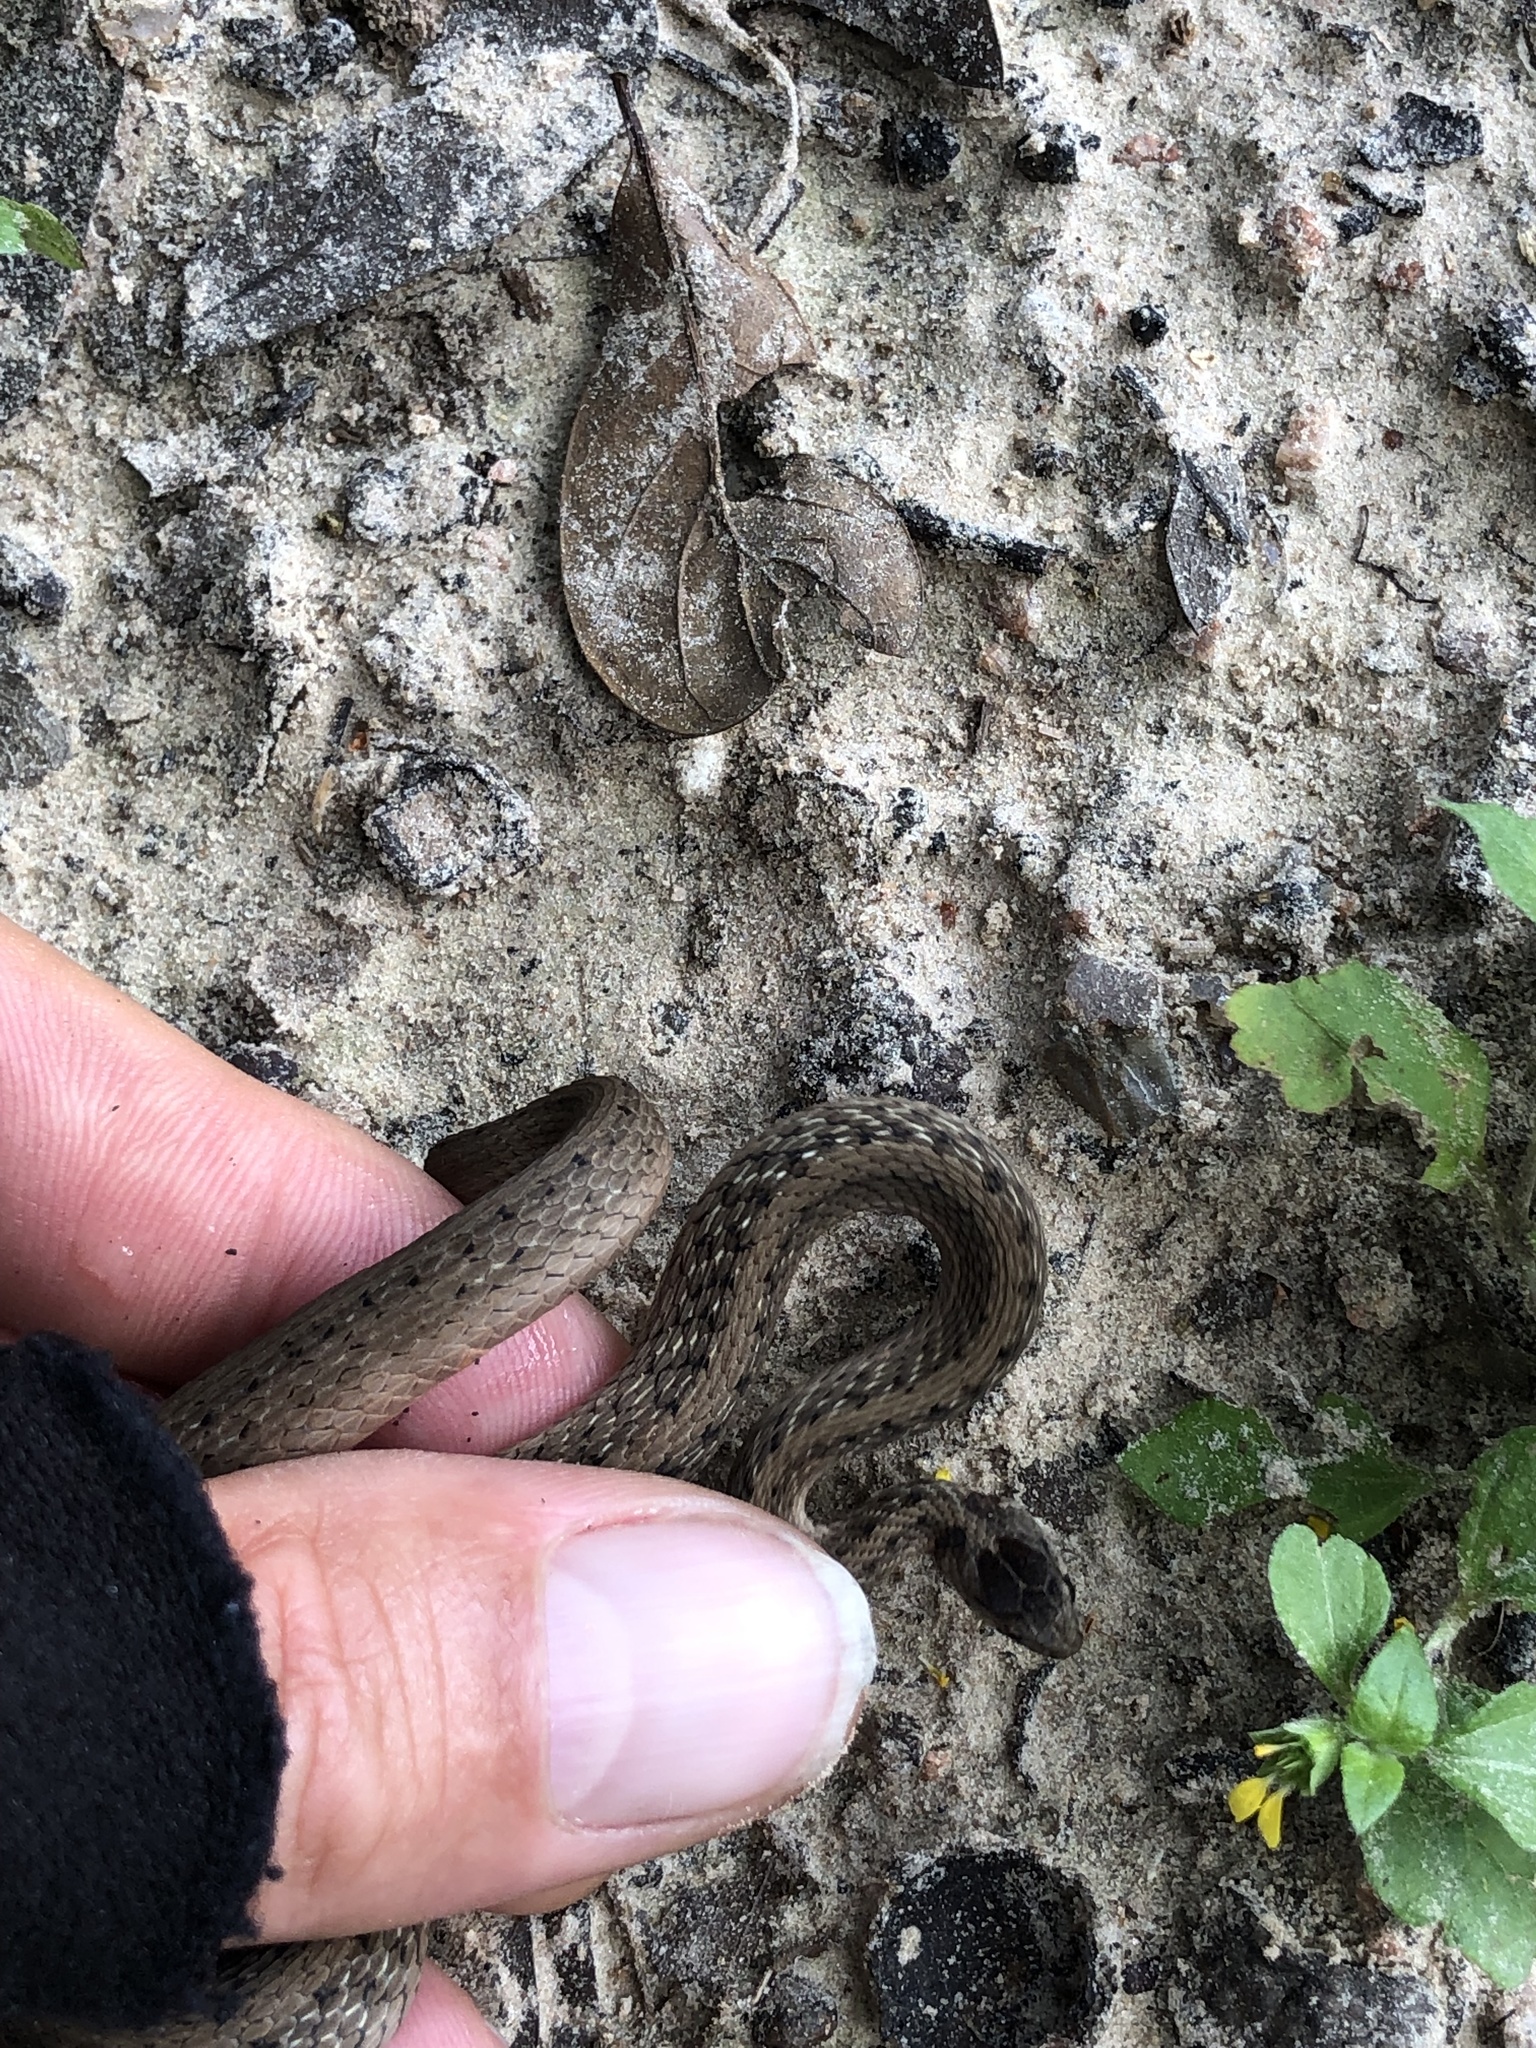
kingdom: Animalia
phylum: Chordata
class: Squamata
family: Colubridae
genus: Storeria
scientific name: Storeria dekayi
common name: (dekay’s) brown snake
